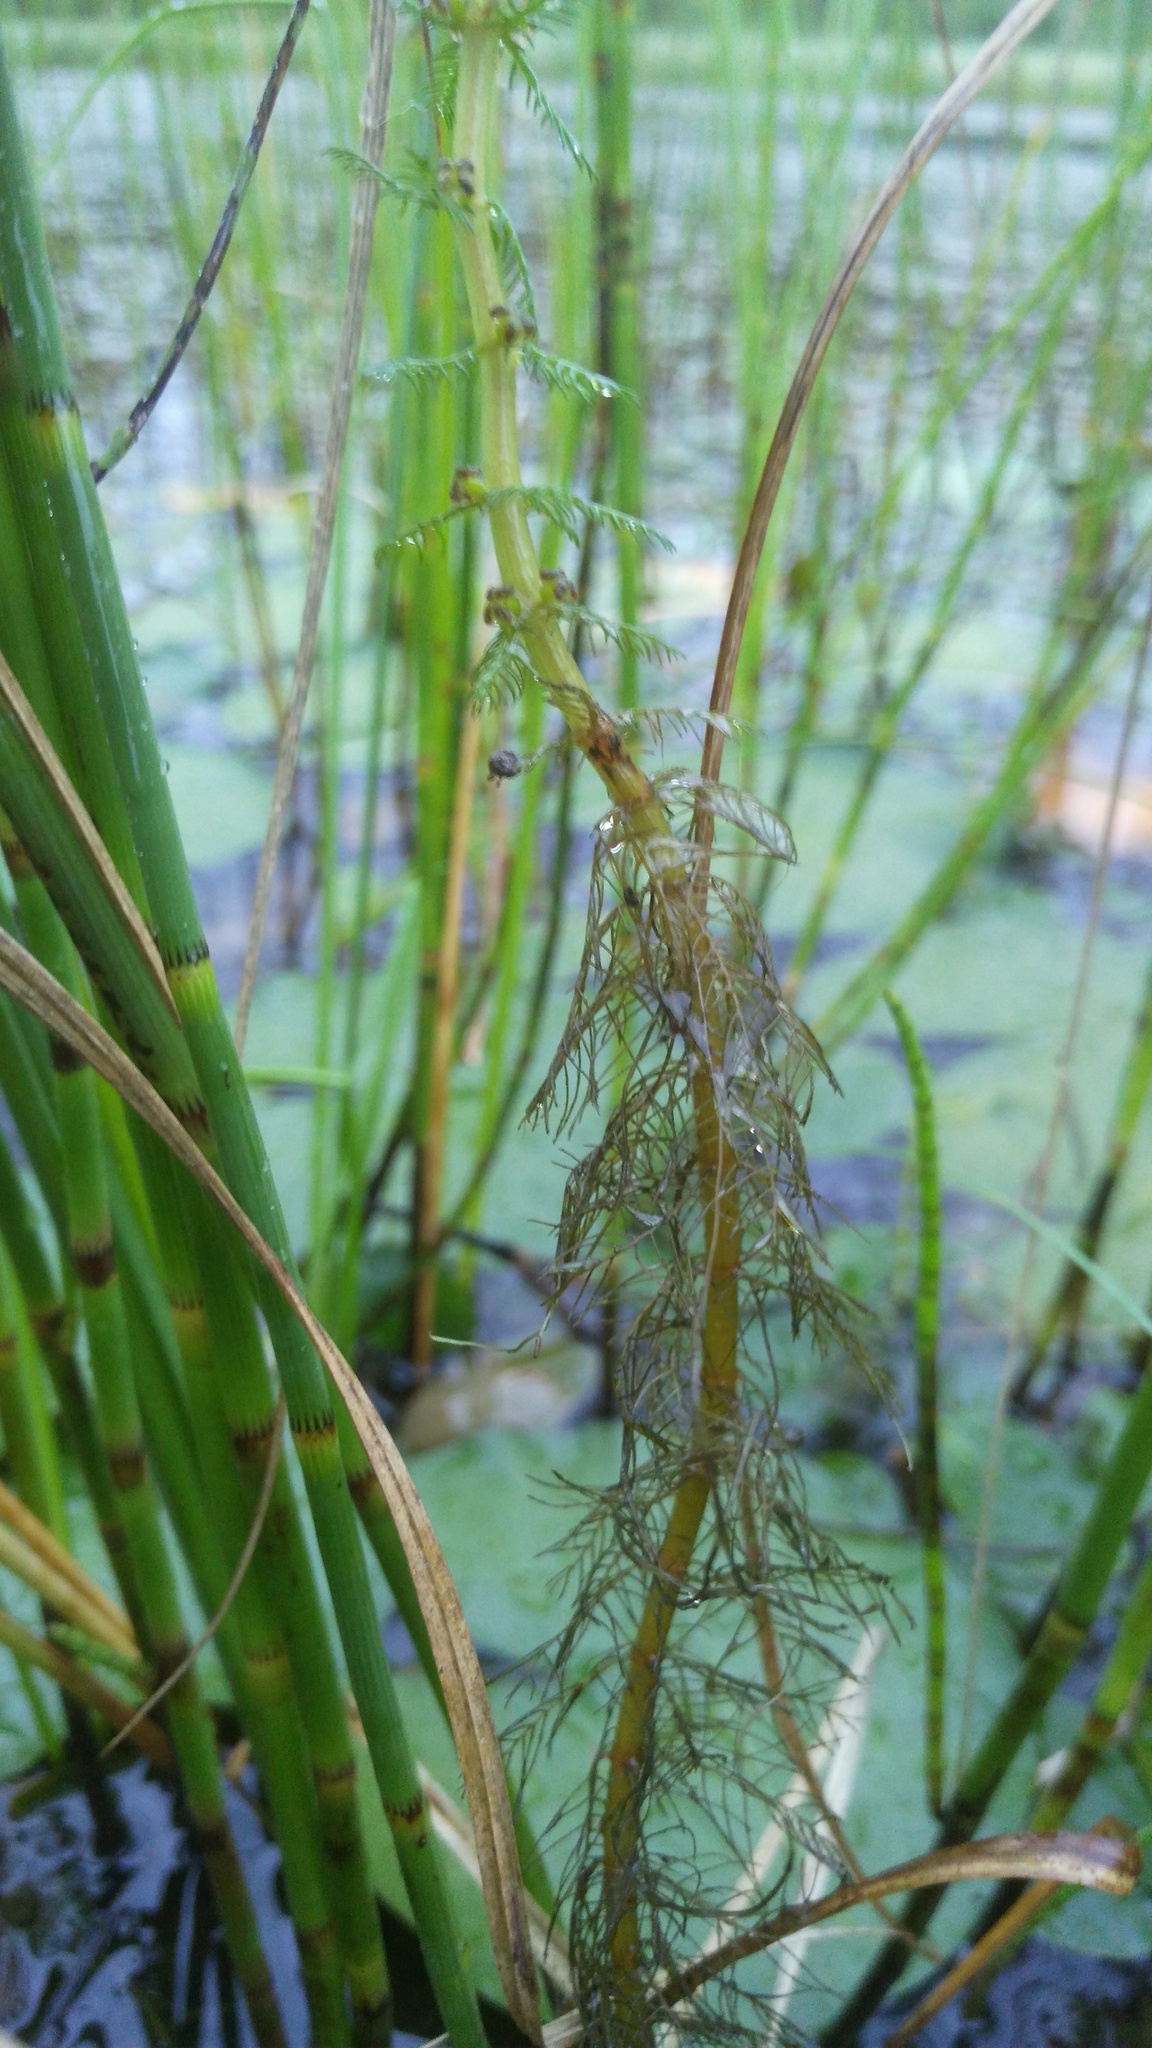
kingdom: Plantae
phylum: Tracheophyta
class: Magnoliopsida
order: Saxifragales
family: Haloragaceae
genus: Myriophyllum
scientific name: Myriophyllum verticillatum
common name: Whorled water-milfoil
